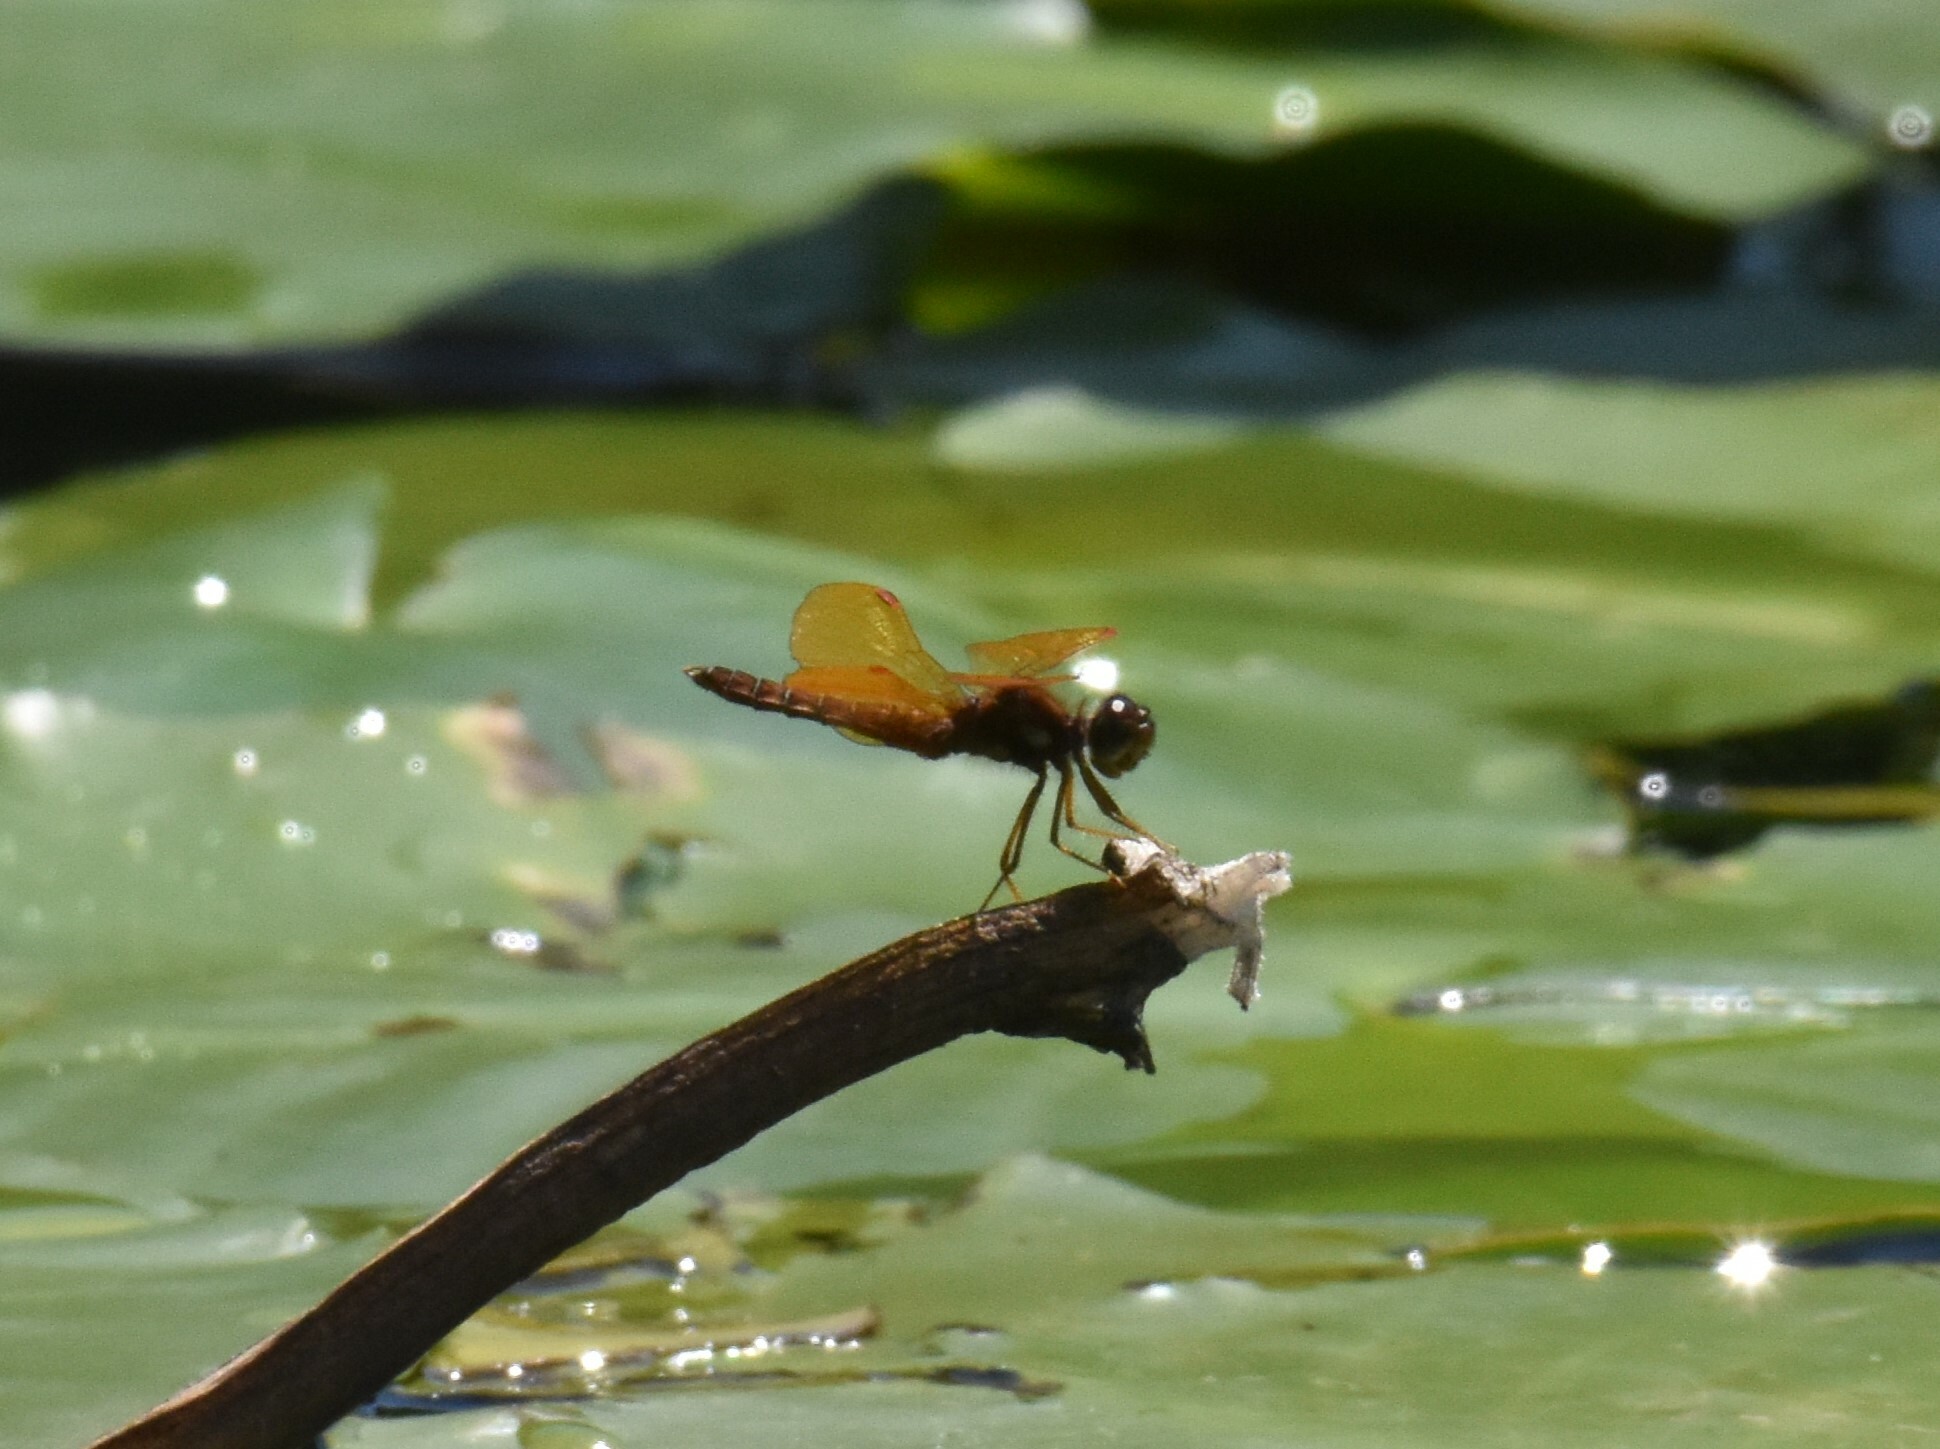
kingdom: Animalia
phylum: Arthropoda
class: Insecta
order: Odonata
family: Libellulidae
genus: Perithemis
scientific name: Perithemis tenera
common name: Eastern amberwing
